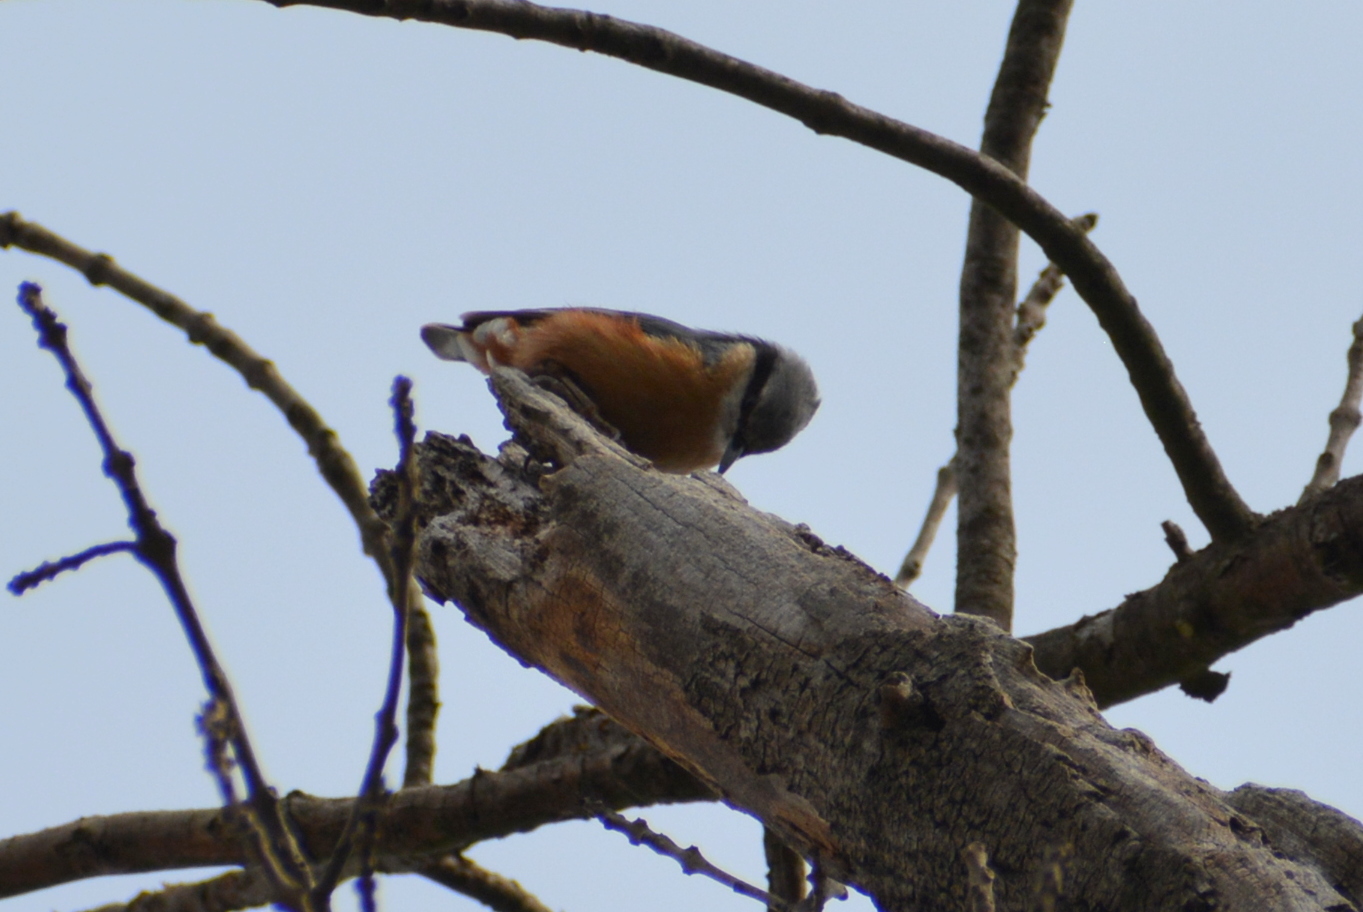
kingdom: Animalia
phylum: Chordata
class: Aves
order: Passeriformes
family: Sittidae
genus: Sitta
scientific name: Sitta europaea
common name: Eurasian nuthatch
